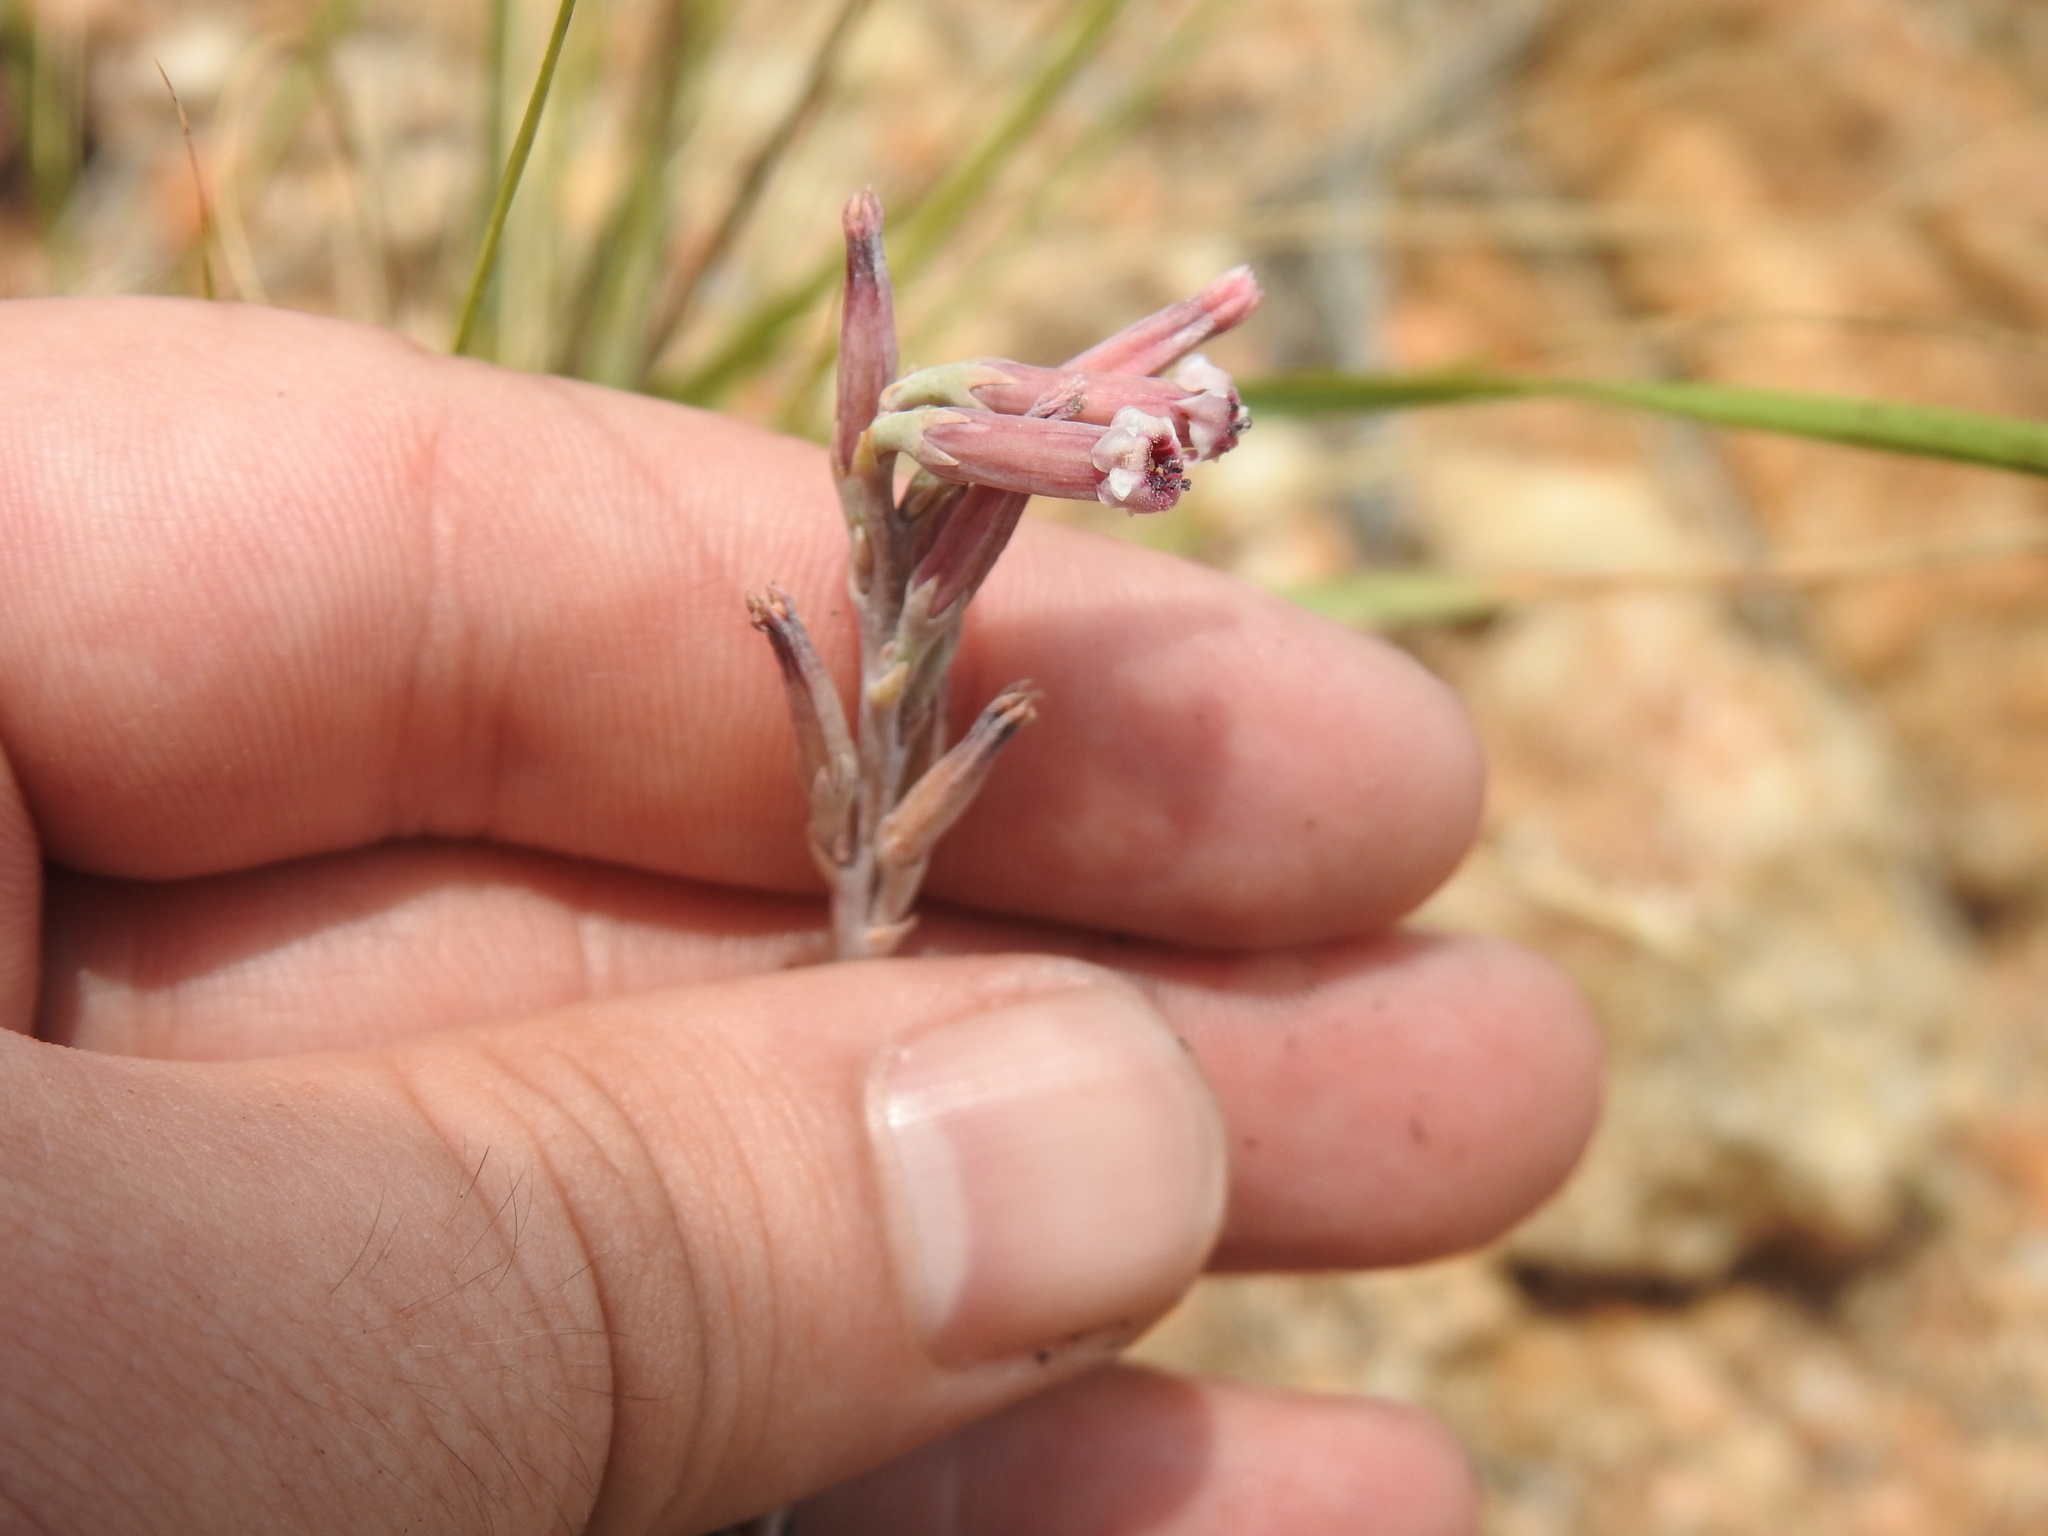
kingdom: Plantae
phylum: Tracheophyta
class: Magnoliopsida
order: Saxifragales
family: Crassulaceae
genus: Adromischus
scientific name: Adromischus umbraticola
